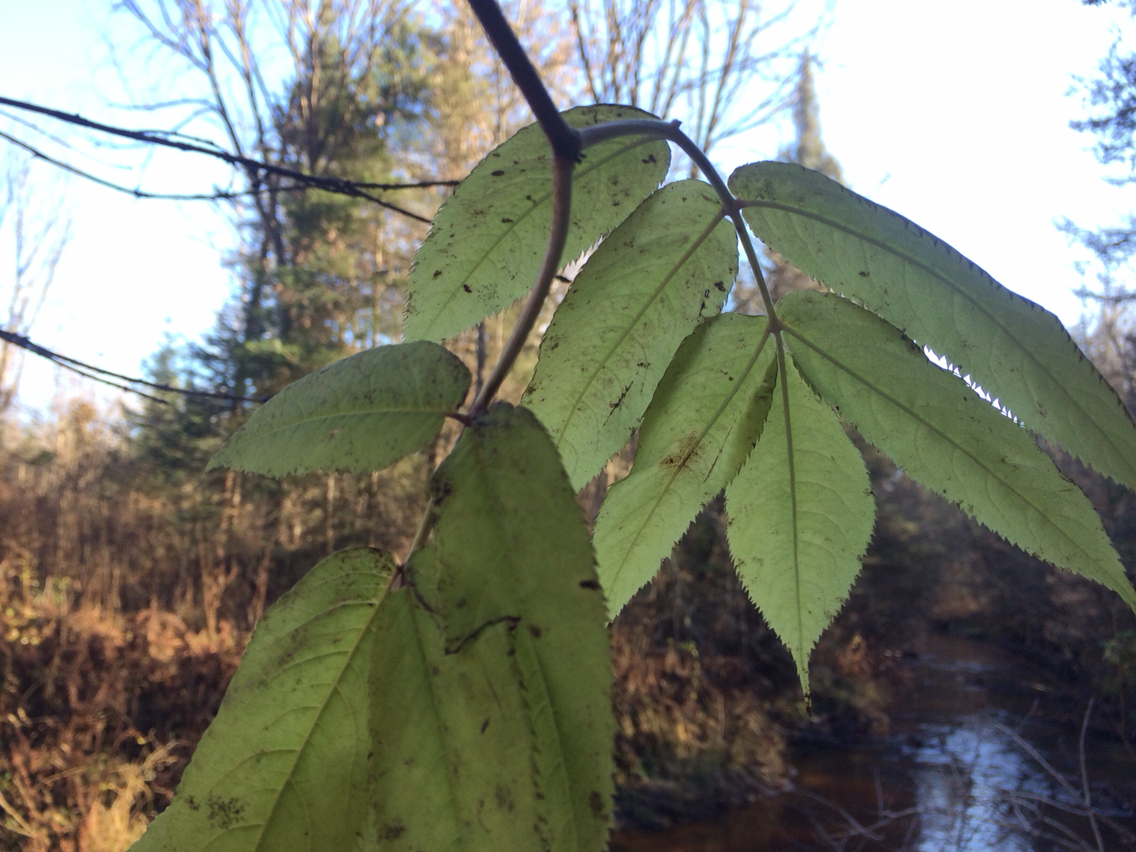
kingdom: Plantae
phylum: Tracheophyta
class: Magnoliopsida
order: Dipsacales
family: Viburnaceae
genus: Sambucus
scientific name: Sambucus racemosa
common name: Red-berried elder
